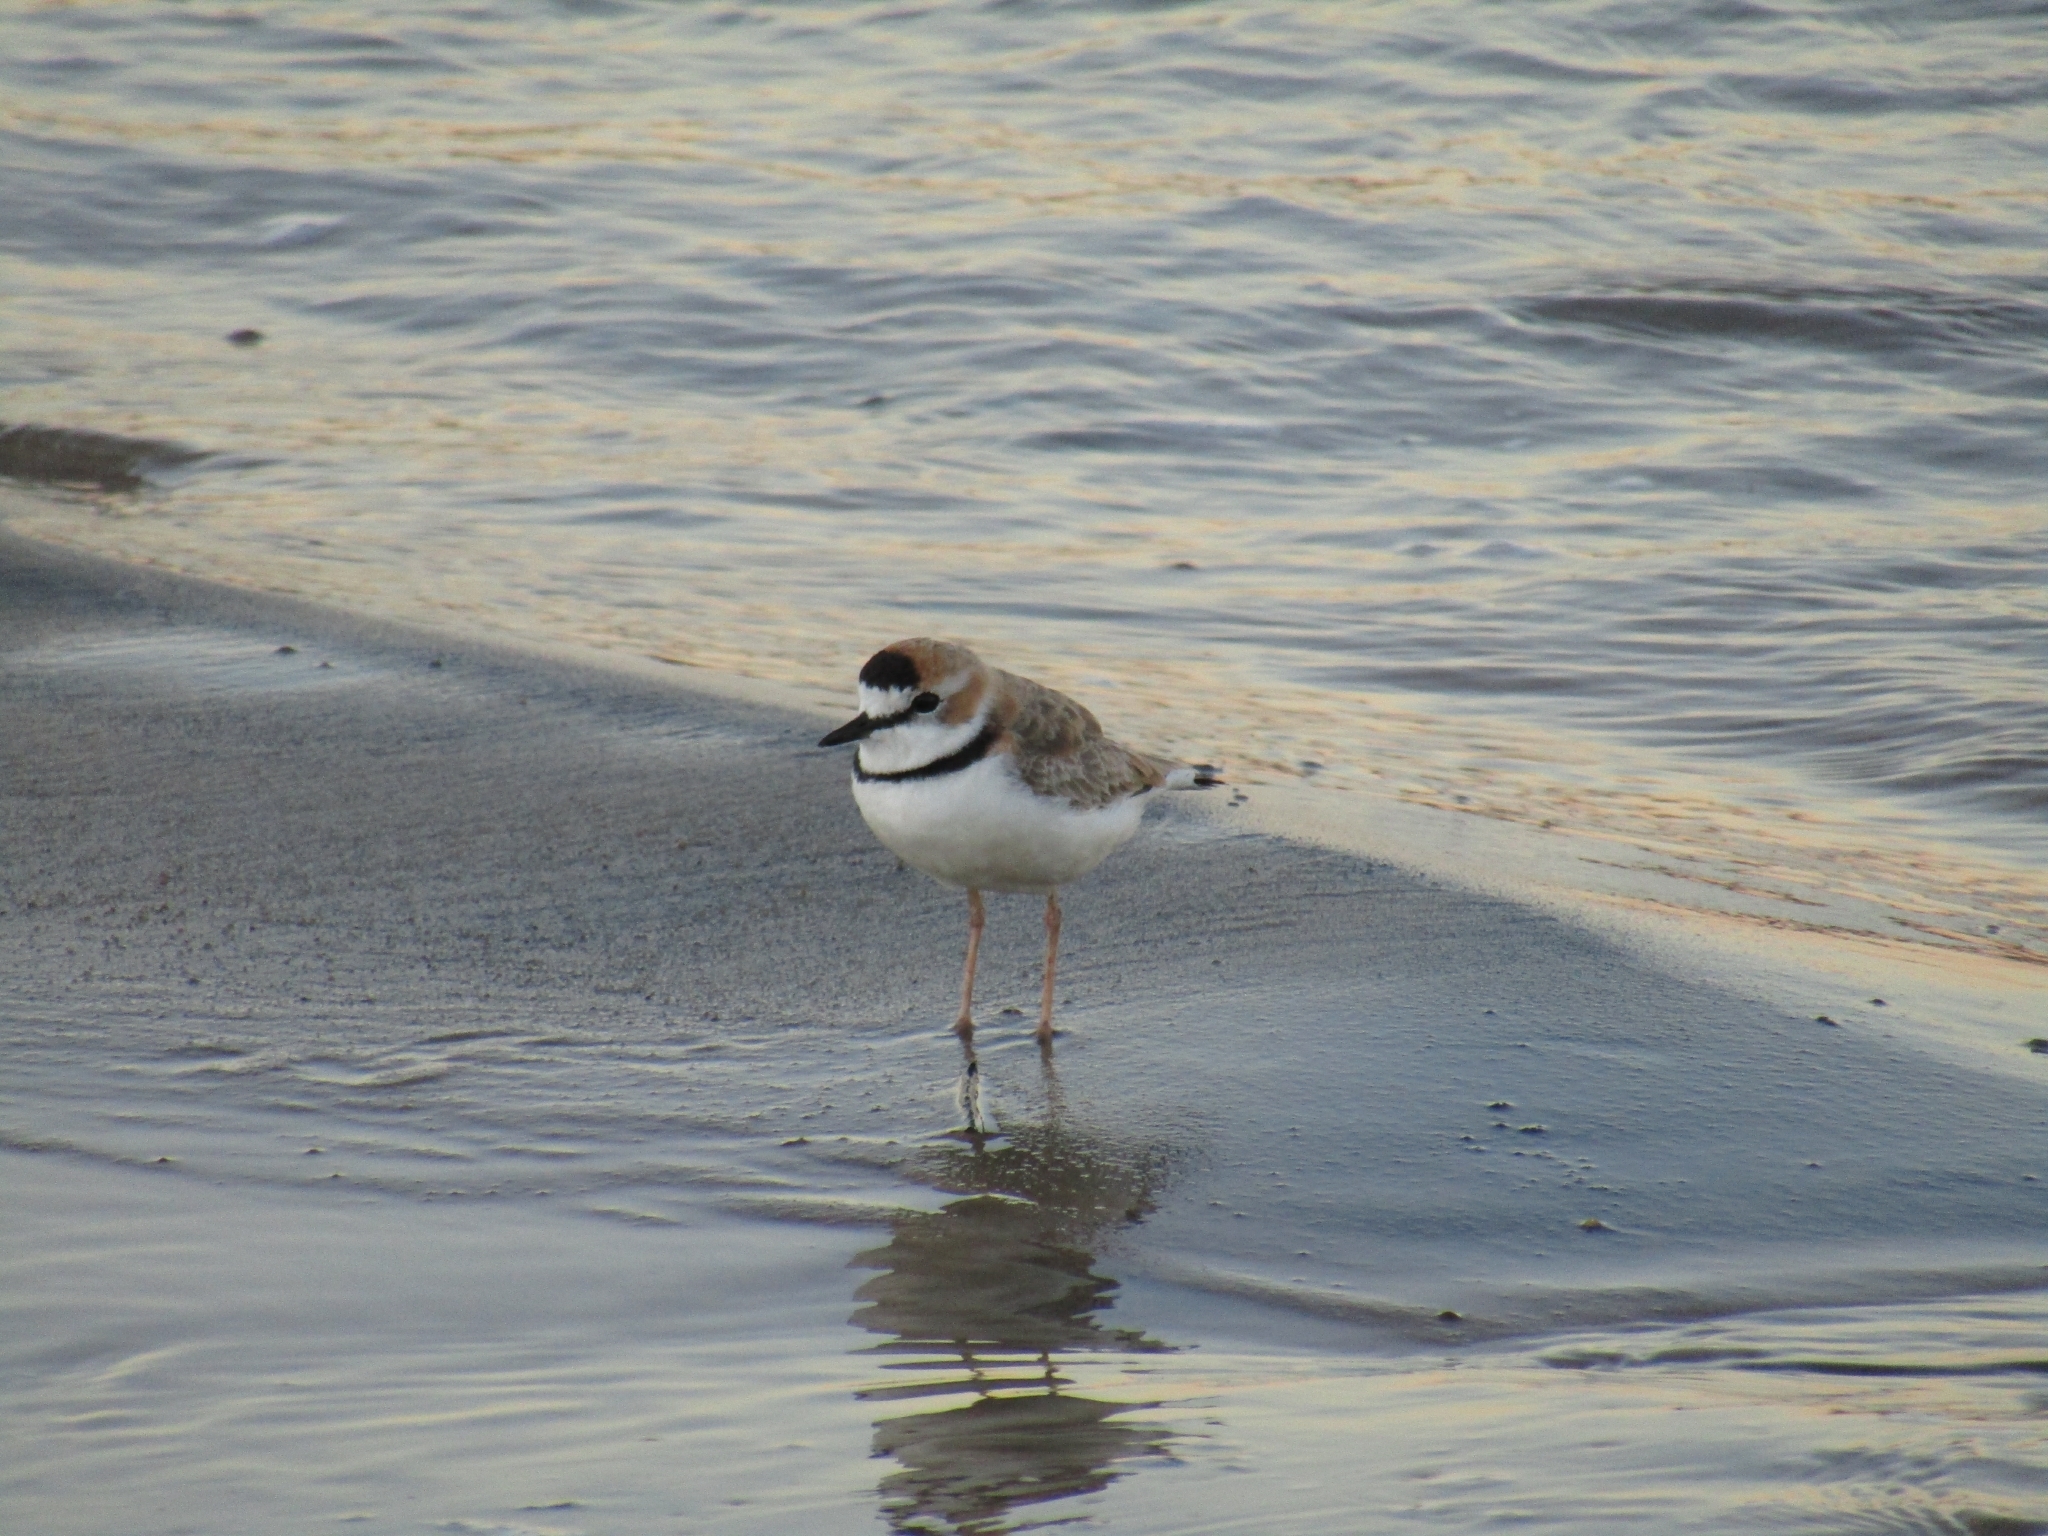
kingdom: Animalia
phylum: Chordata
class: Aves
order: Charadriiformes
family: Charadriidae
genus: Anarhynchus
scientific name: Anarhynchus
